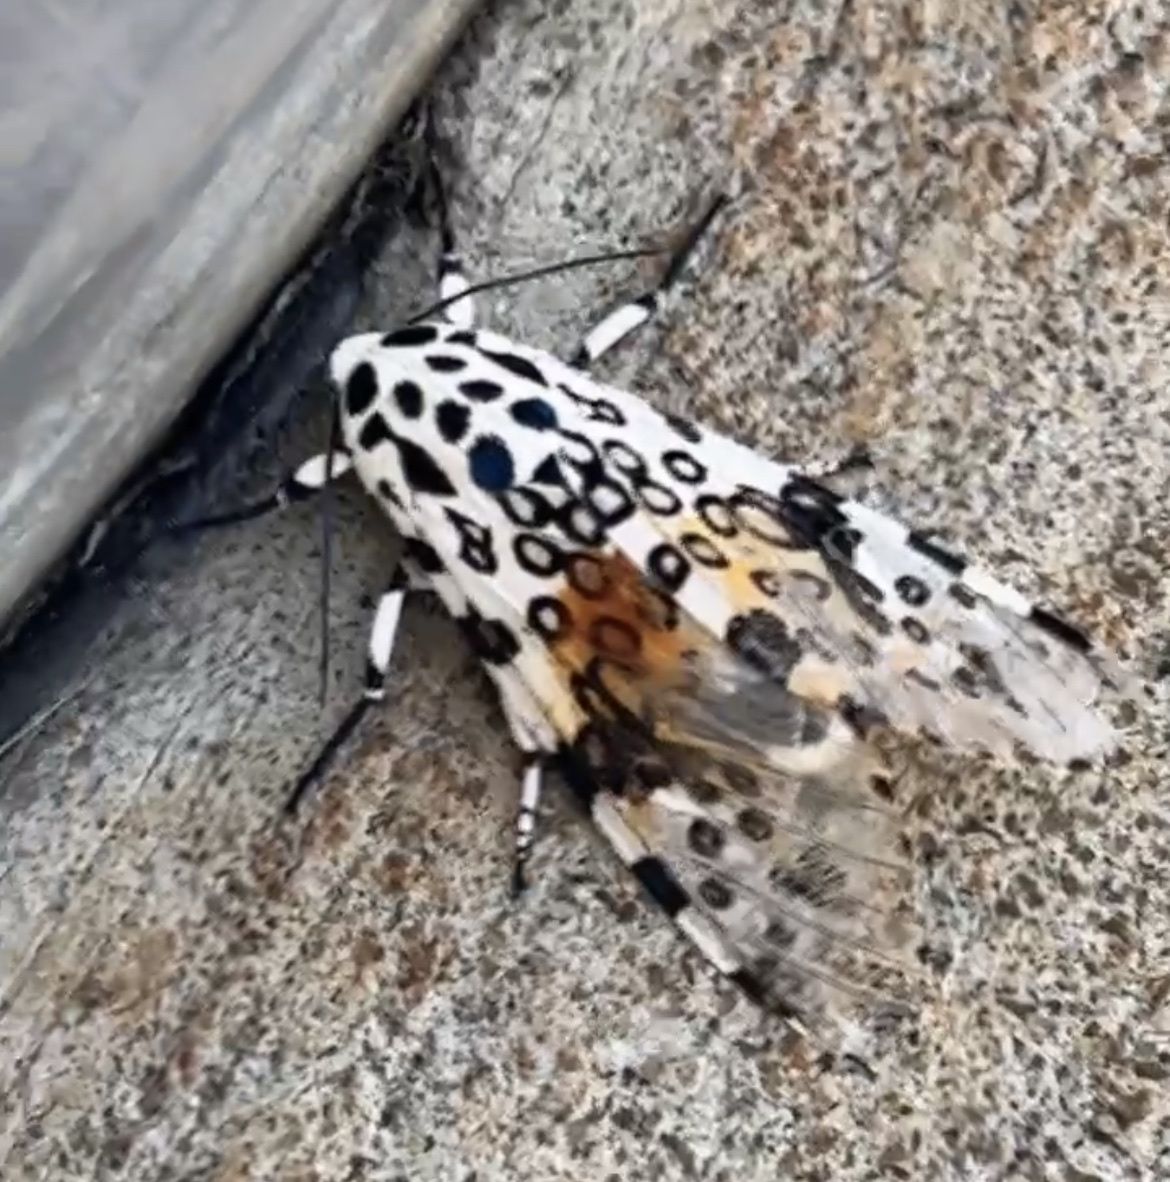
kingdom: Animalia
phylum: Arthropoda
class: Insecta
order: Lepidoptera
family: Erebidae
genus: Hypercompe
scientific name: Hypercompe scribonia
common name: Giant leopard moth
